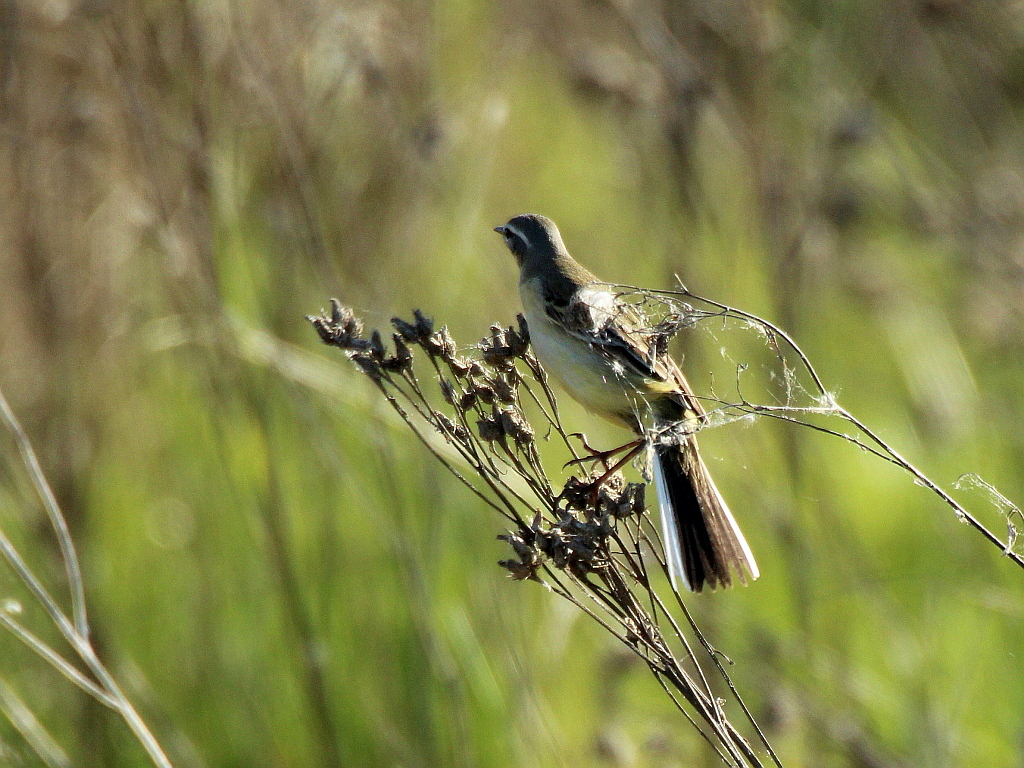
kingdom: Animalia
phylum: Chordata
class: Aves
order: Passeriformes
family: Motacillidae
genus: Motacilla
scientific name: Motacilla flava
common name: Western yellow wagtail
